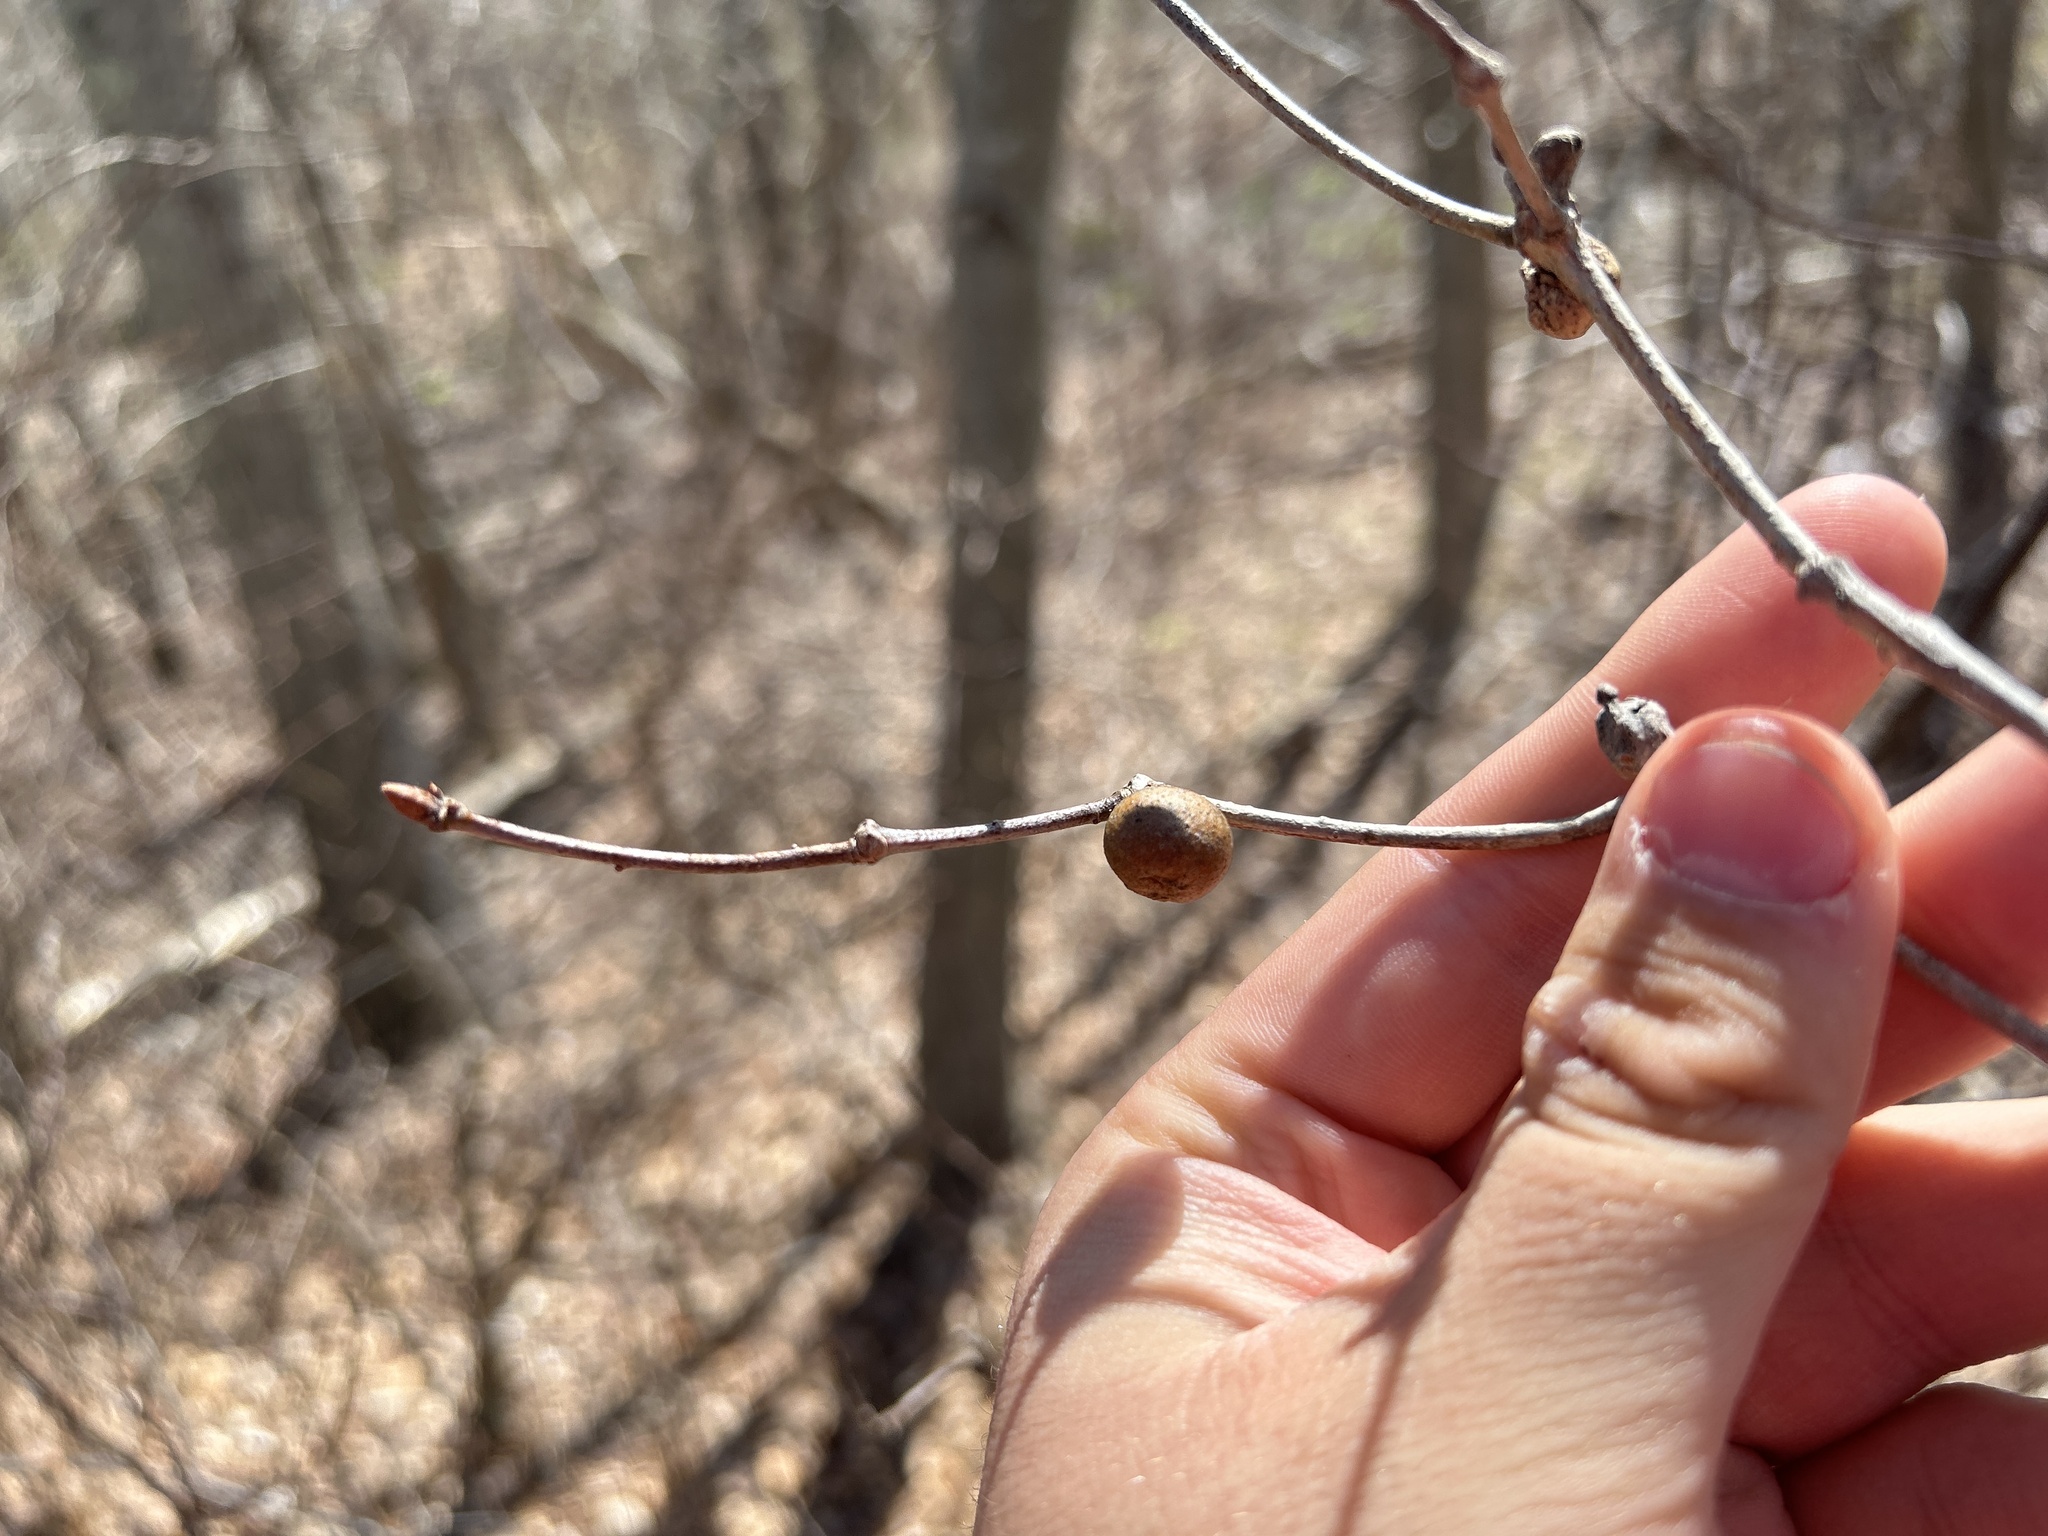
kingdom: Animalia
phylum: Arthropoda
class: Insecta
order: Hymenoptera
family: Cynipidae
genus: Disholcaspis
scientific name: Disholcaspis quercusglobulus
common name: Round bullet gall wasp
